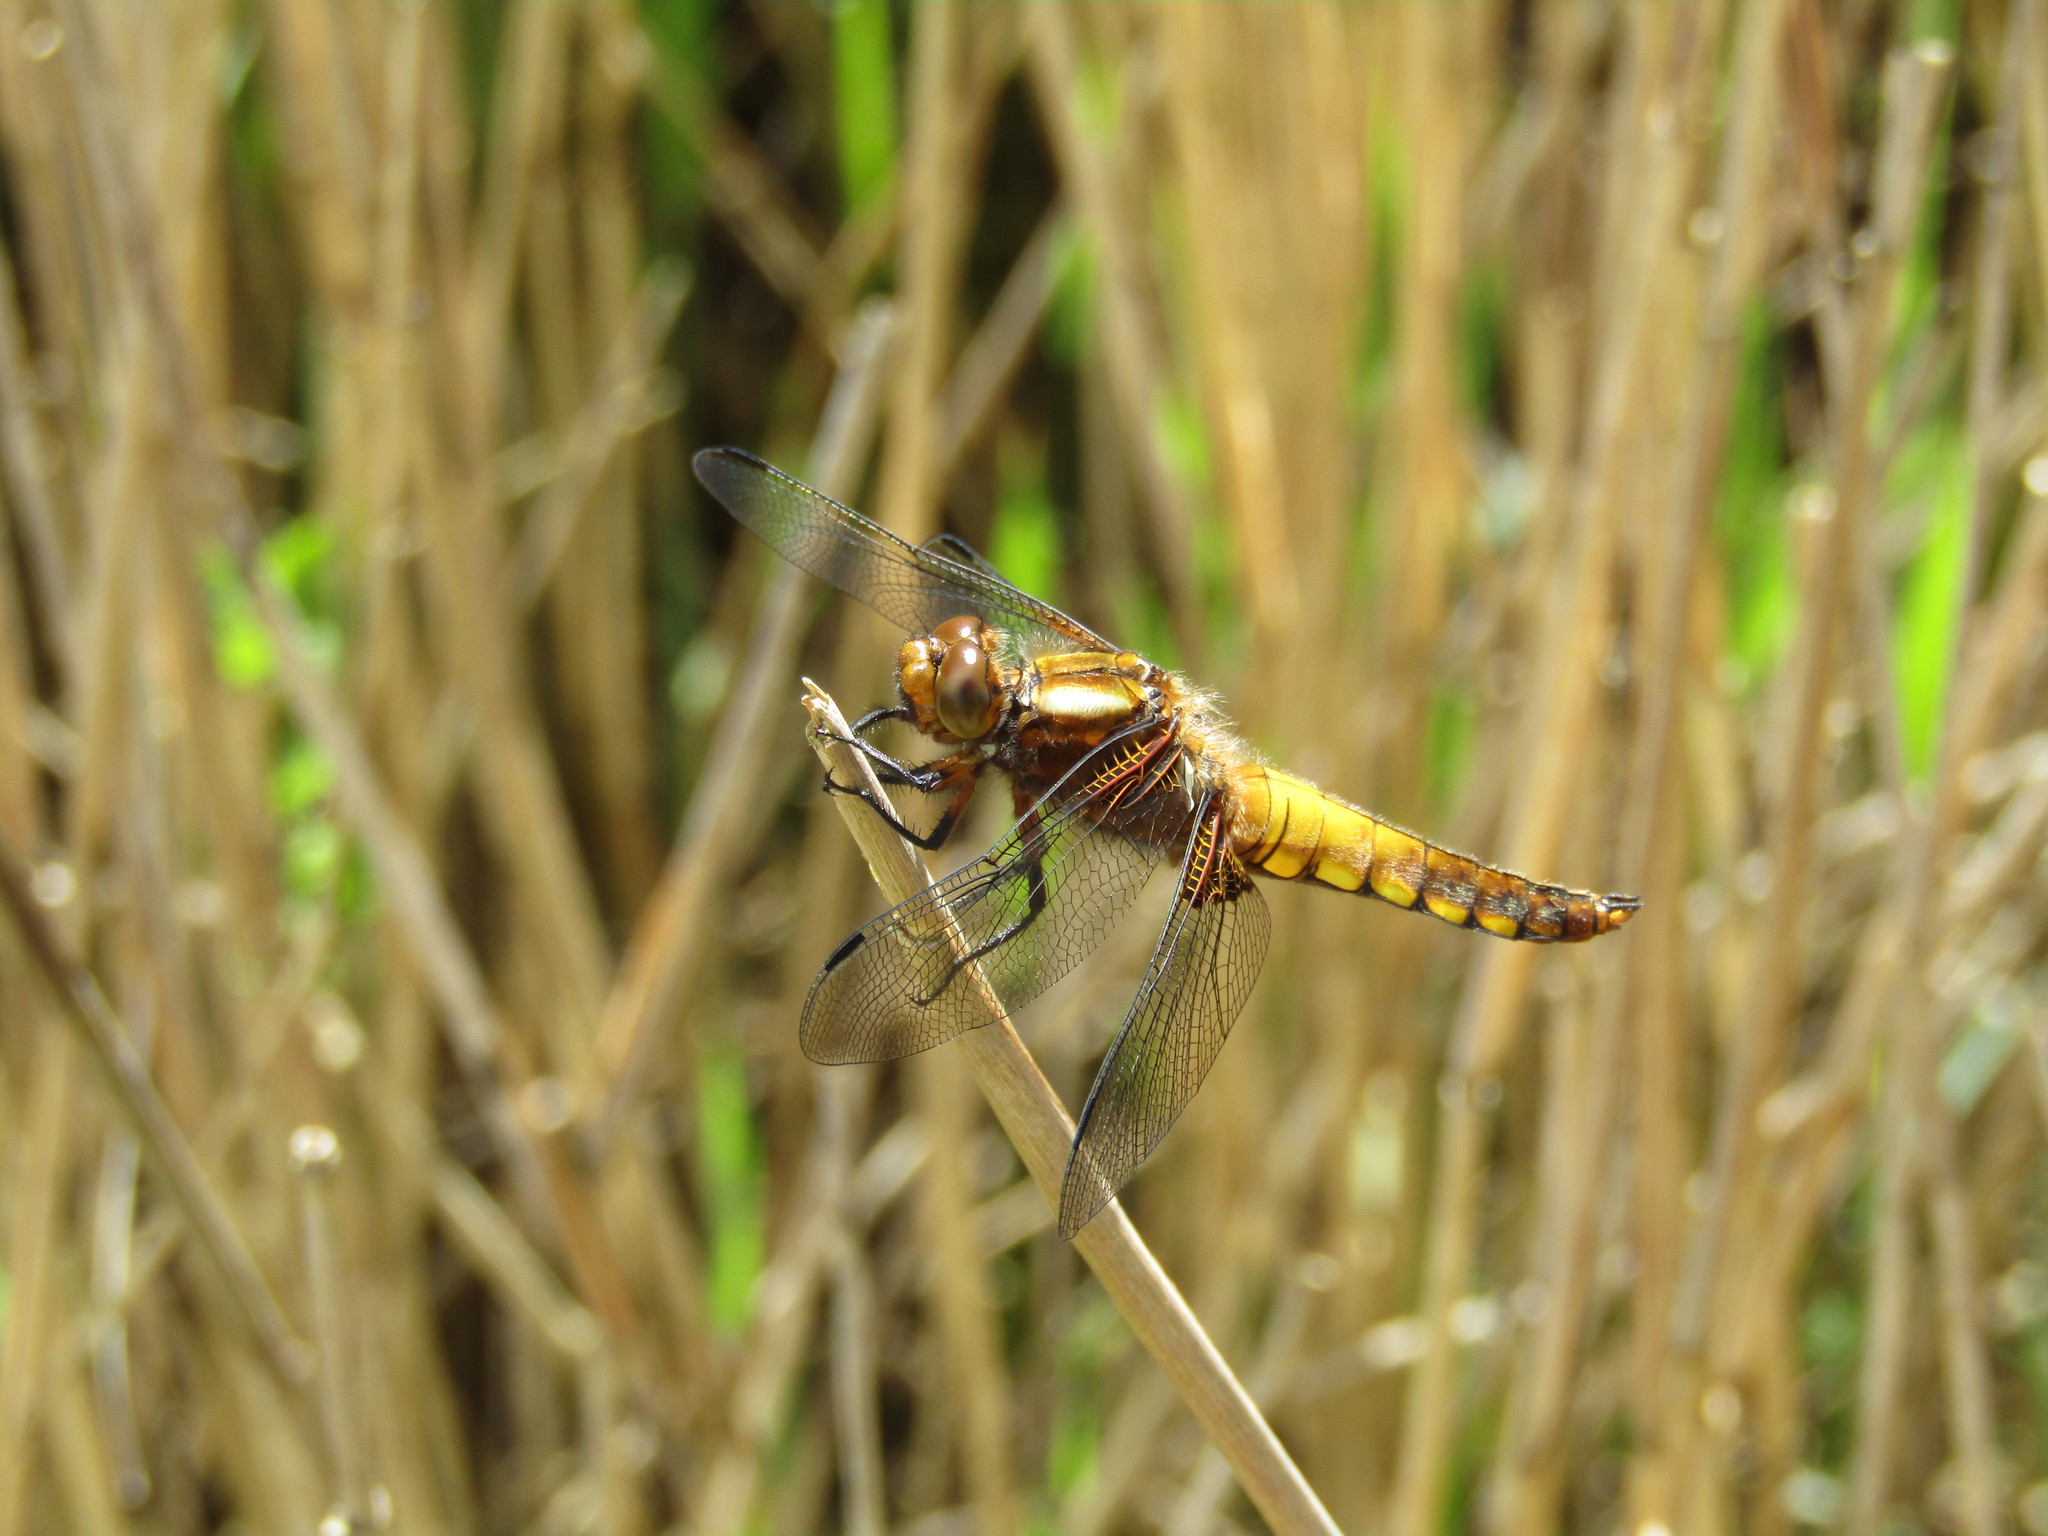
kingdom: Animalia
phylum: Arthropoda
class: Insecta
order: Odonata
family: Libellulidae
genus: Libellula
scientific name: Libellula depressa
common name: Broad-bodied chaser
